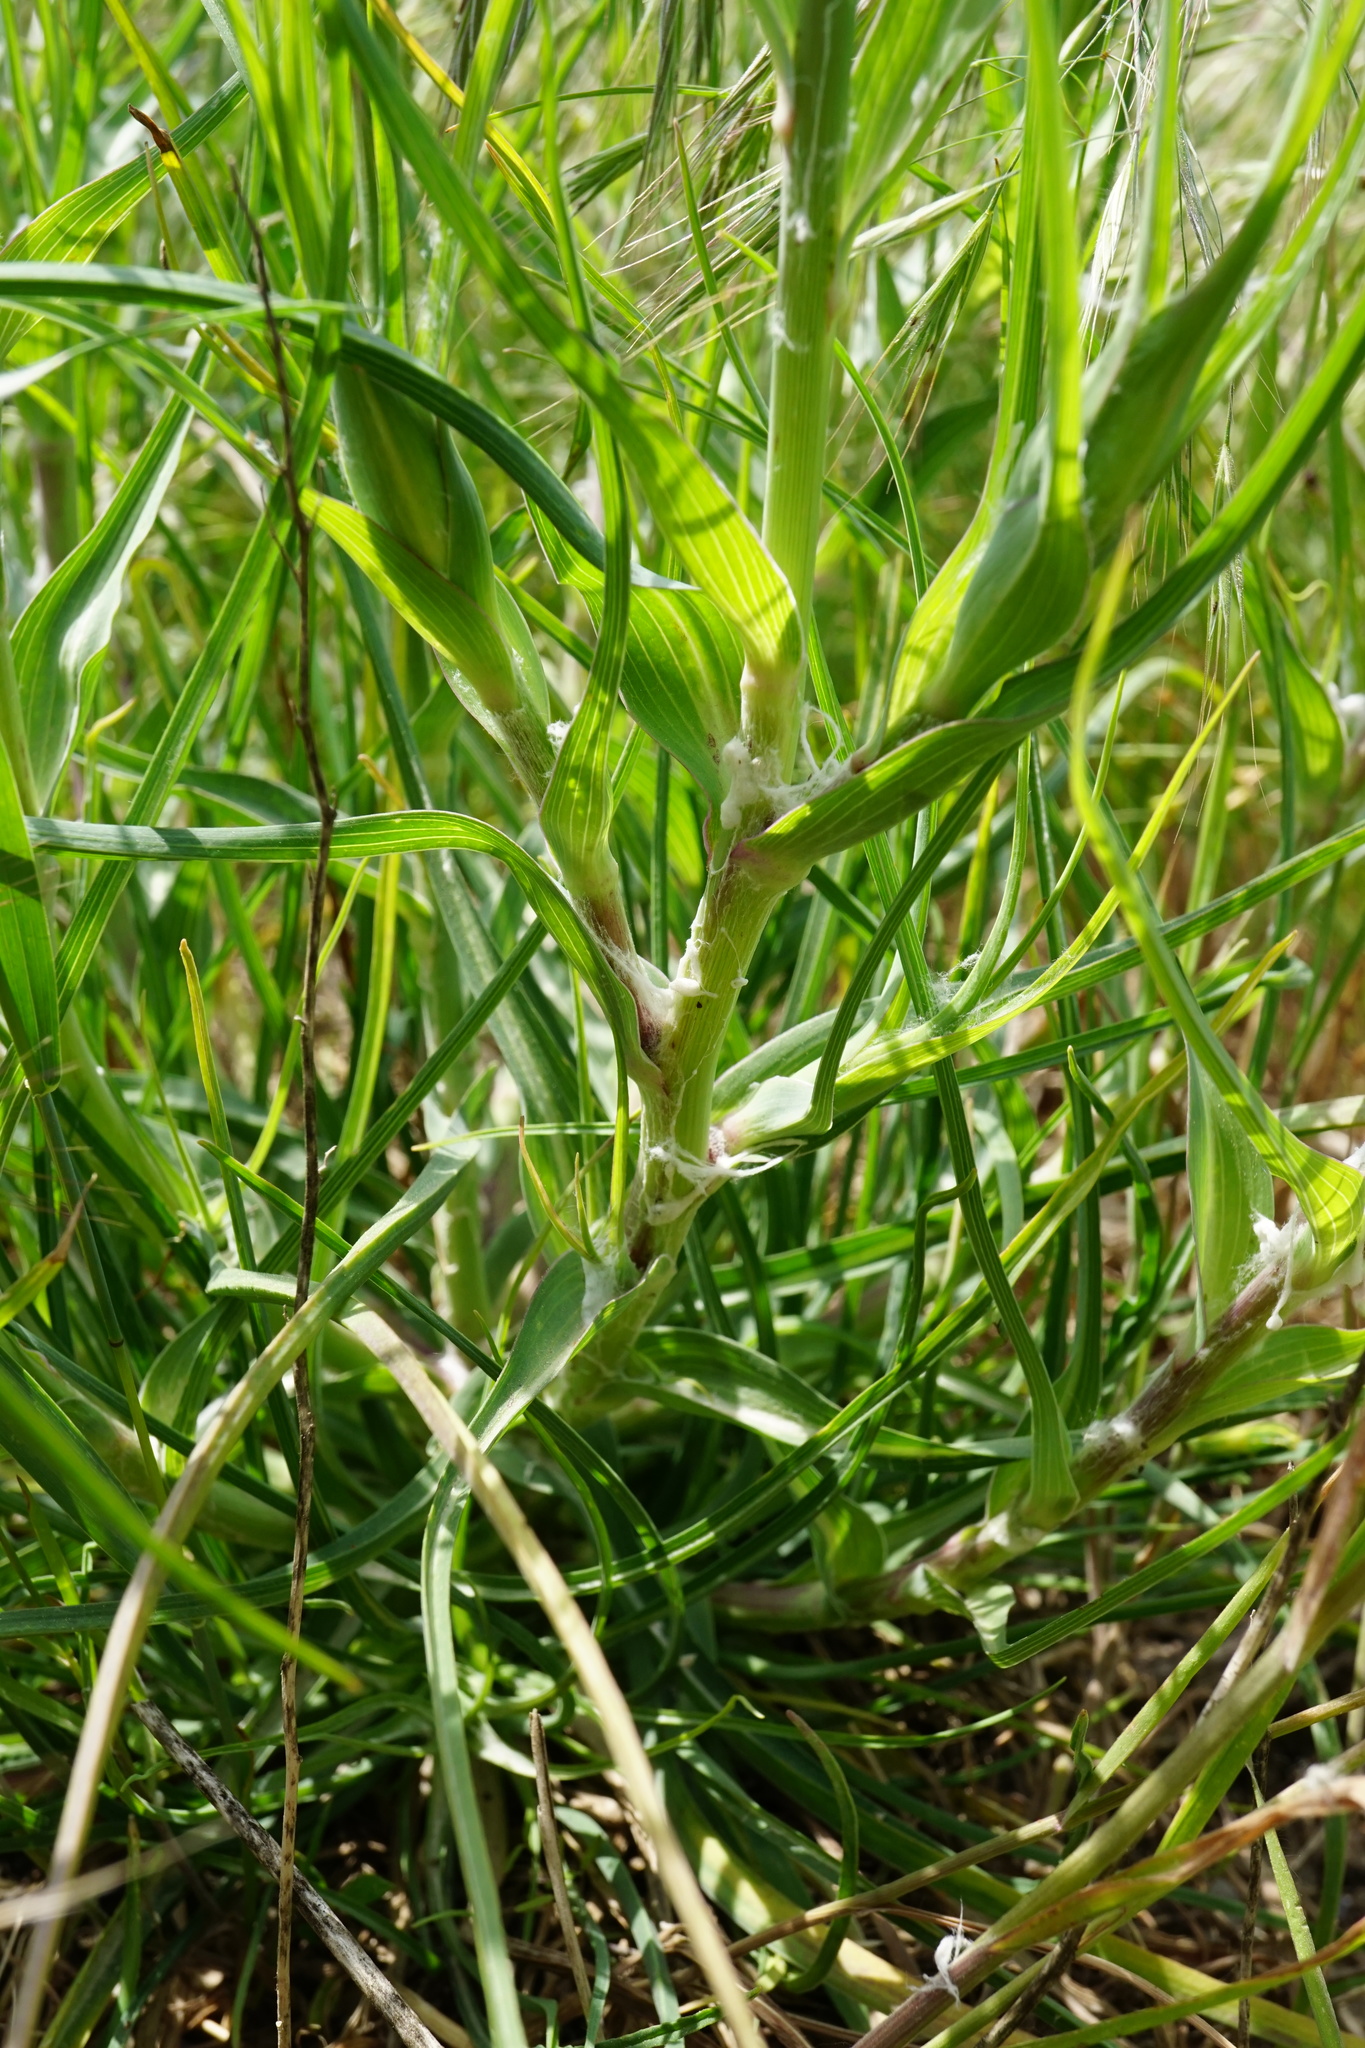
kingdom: Plantae
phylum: Tracheophyta
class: Magnoliopsida
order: Asterales
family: Asteraceae
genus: Tragopogon
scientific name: Tragopogon dubius
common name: Yellow salsify
